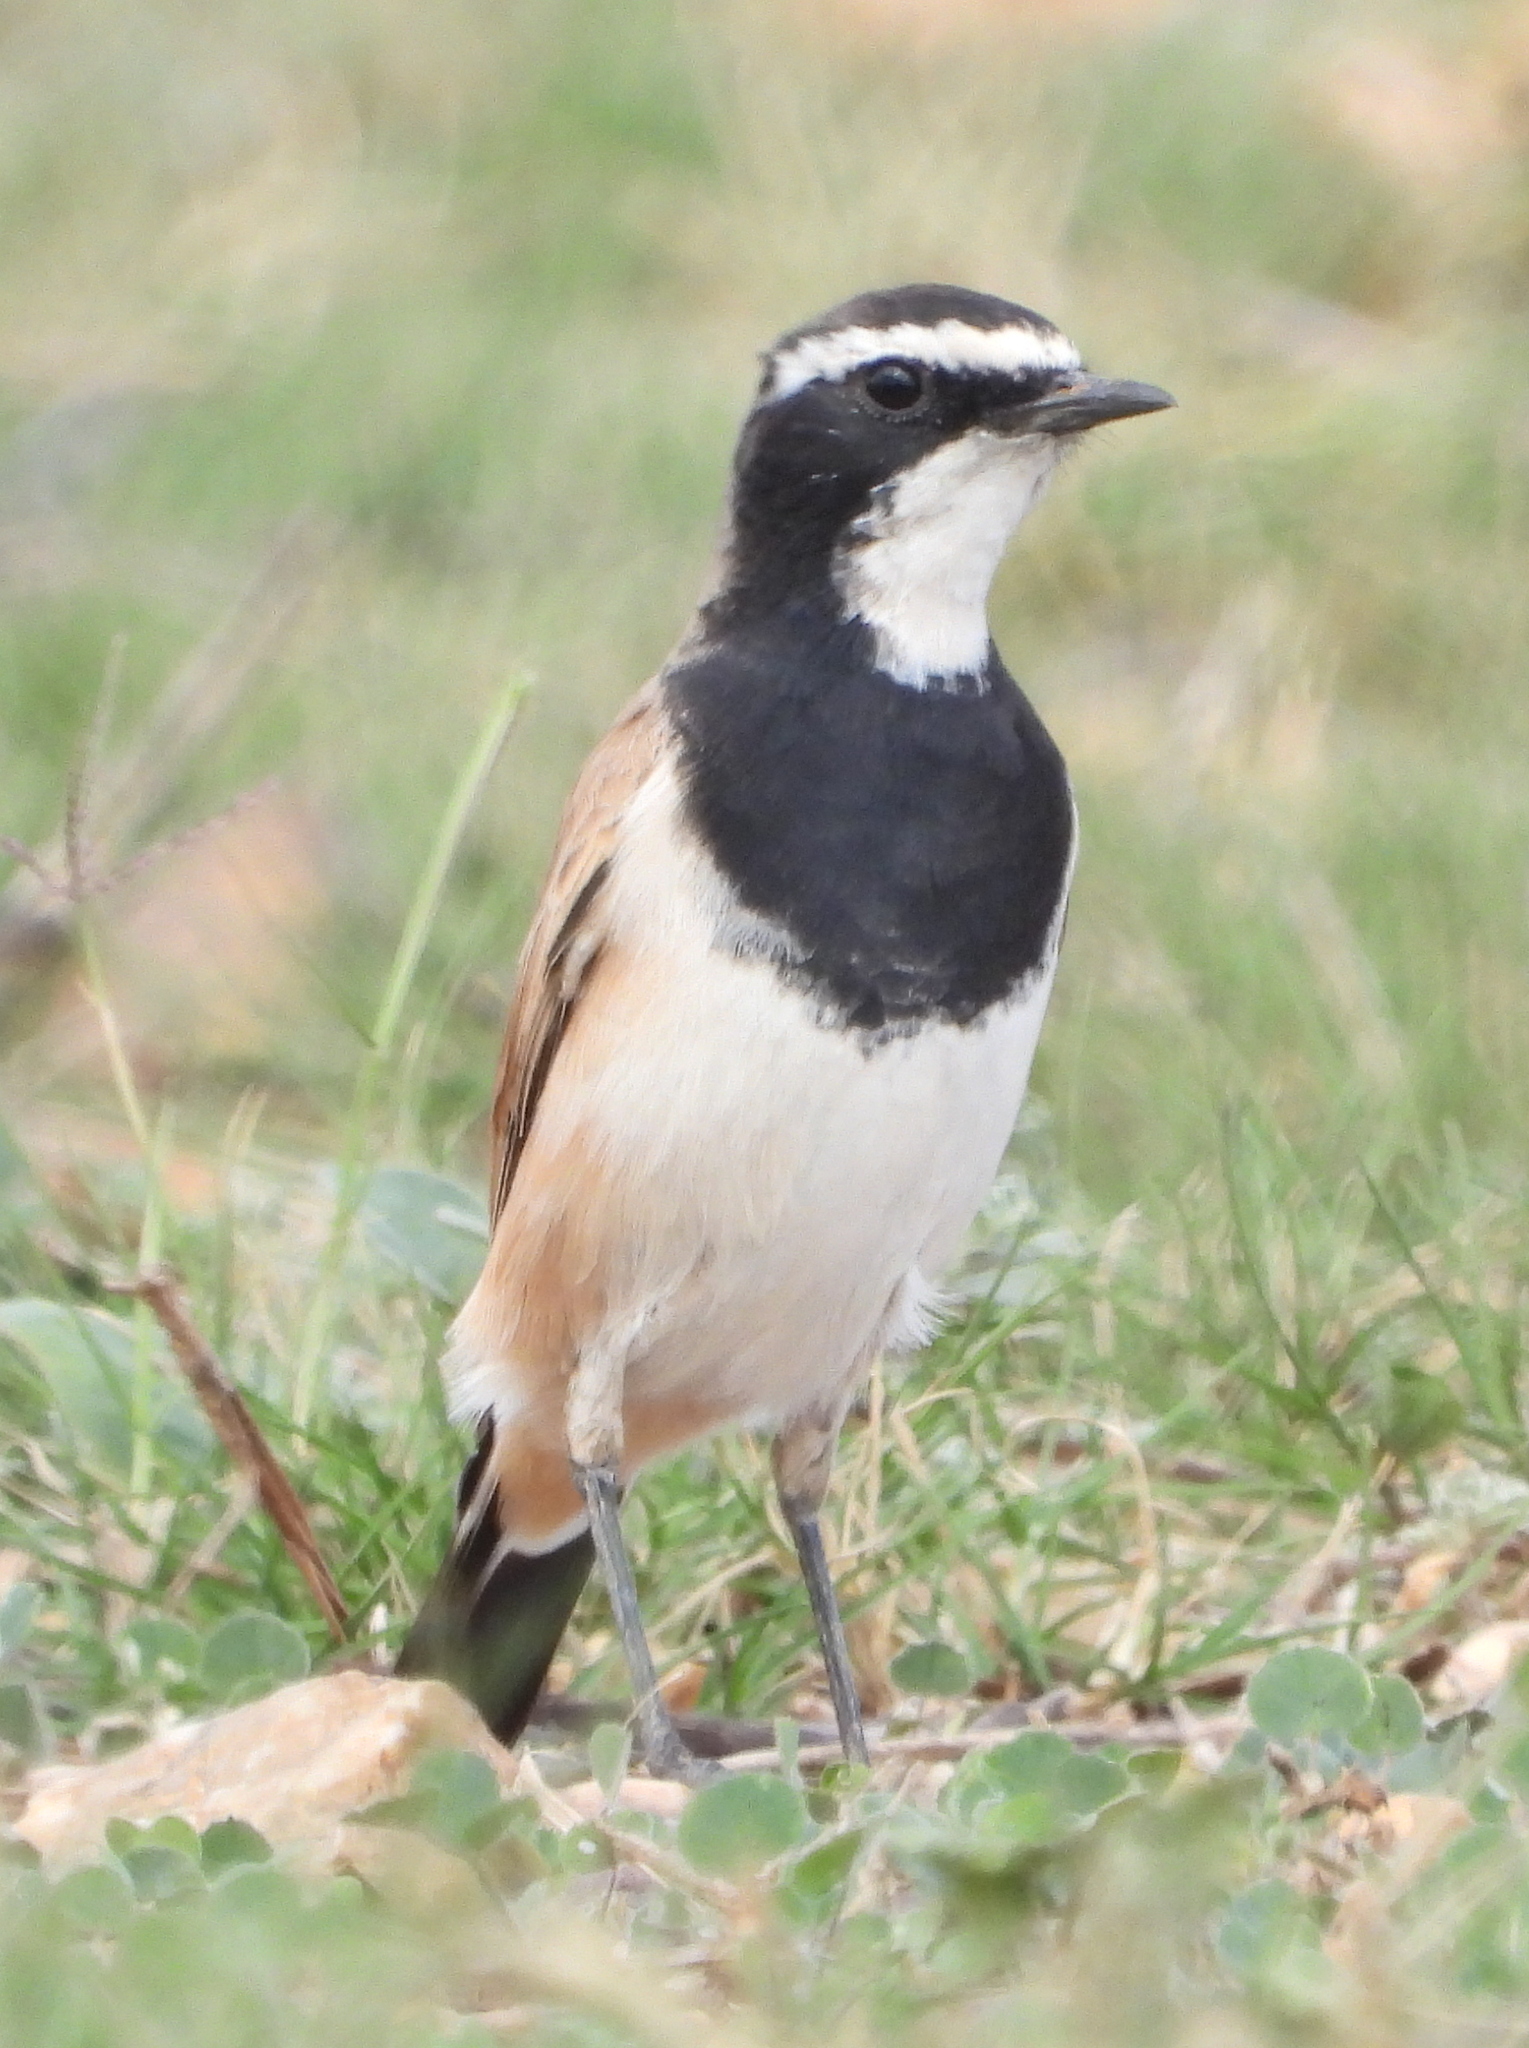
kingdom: Animalia
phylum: Chordata
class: Aves
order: Passeriformes
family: Muscicapidae
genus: Oenanthe
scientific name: Oenanthe pileata
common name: Capped wheatear
